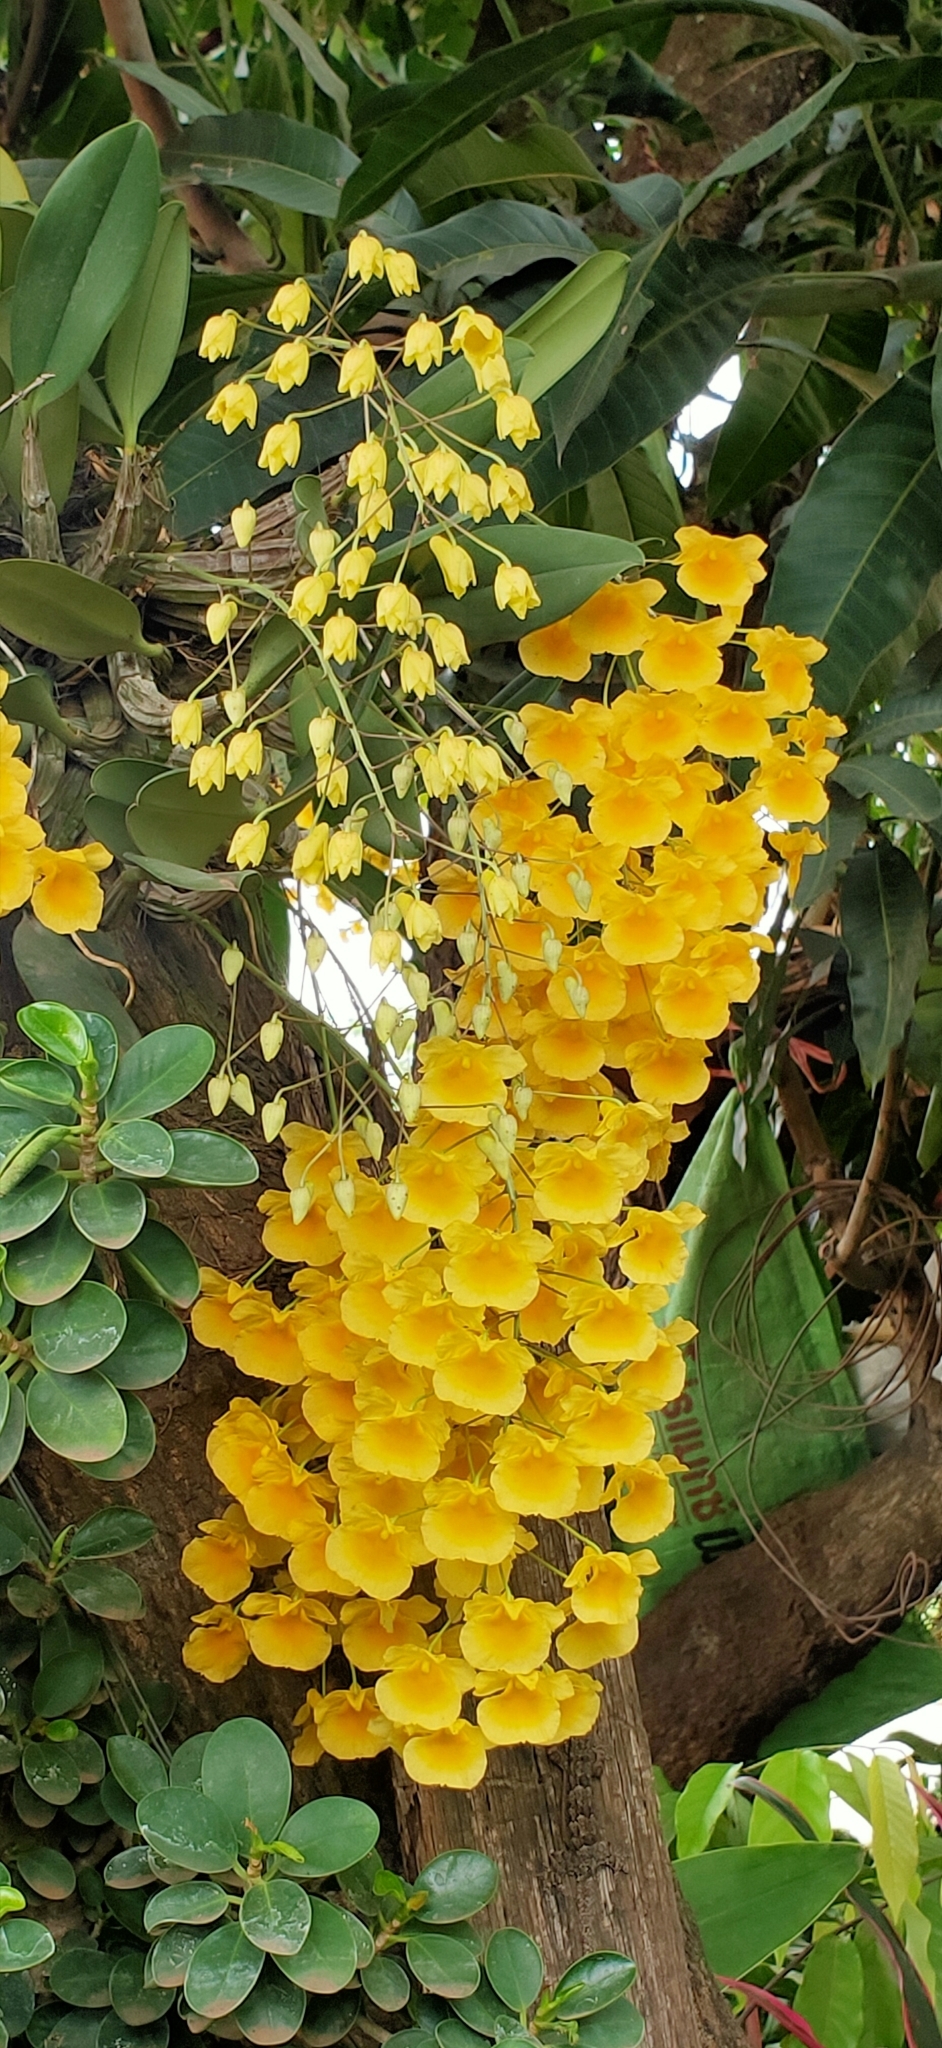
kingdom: Plantae
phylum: Tracheophyta
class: Liliopsida
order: Asparagales
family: Orchidaceae
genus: Dendrobium
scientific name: Dendrobium lindleyi
